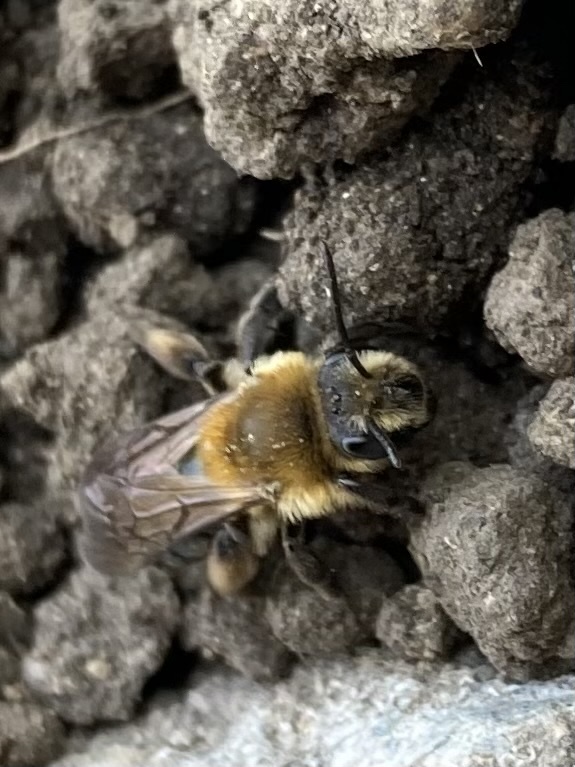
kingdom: Animalia
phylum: Arthropoda
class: Insecta
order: Hymenoptera
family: Andrenidae
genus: Andrena
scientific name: Andrena dunningi
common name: Dunning's miner
